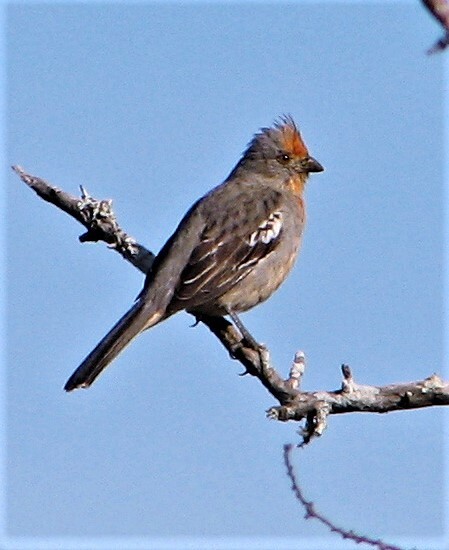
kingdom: Animalia
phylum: Chordata
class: Aves
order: Passeriformes
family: Cotingidae
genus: Phytotoma
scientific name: Phytotoma rutila
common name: White-tipped plantcutter
